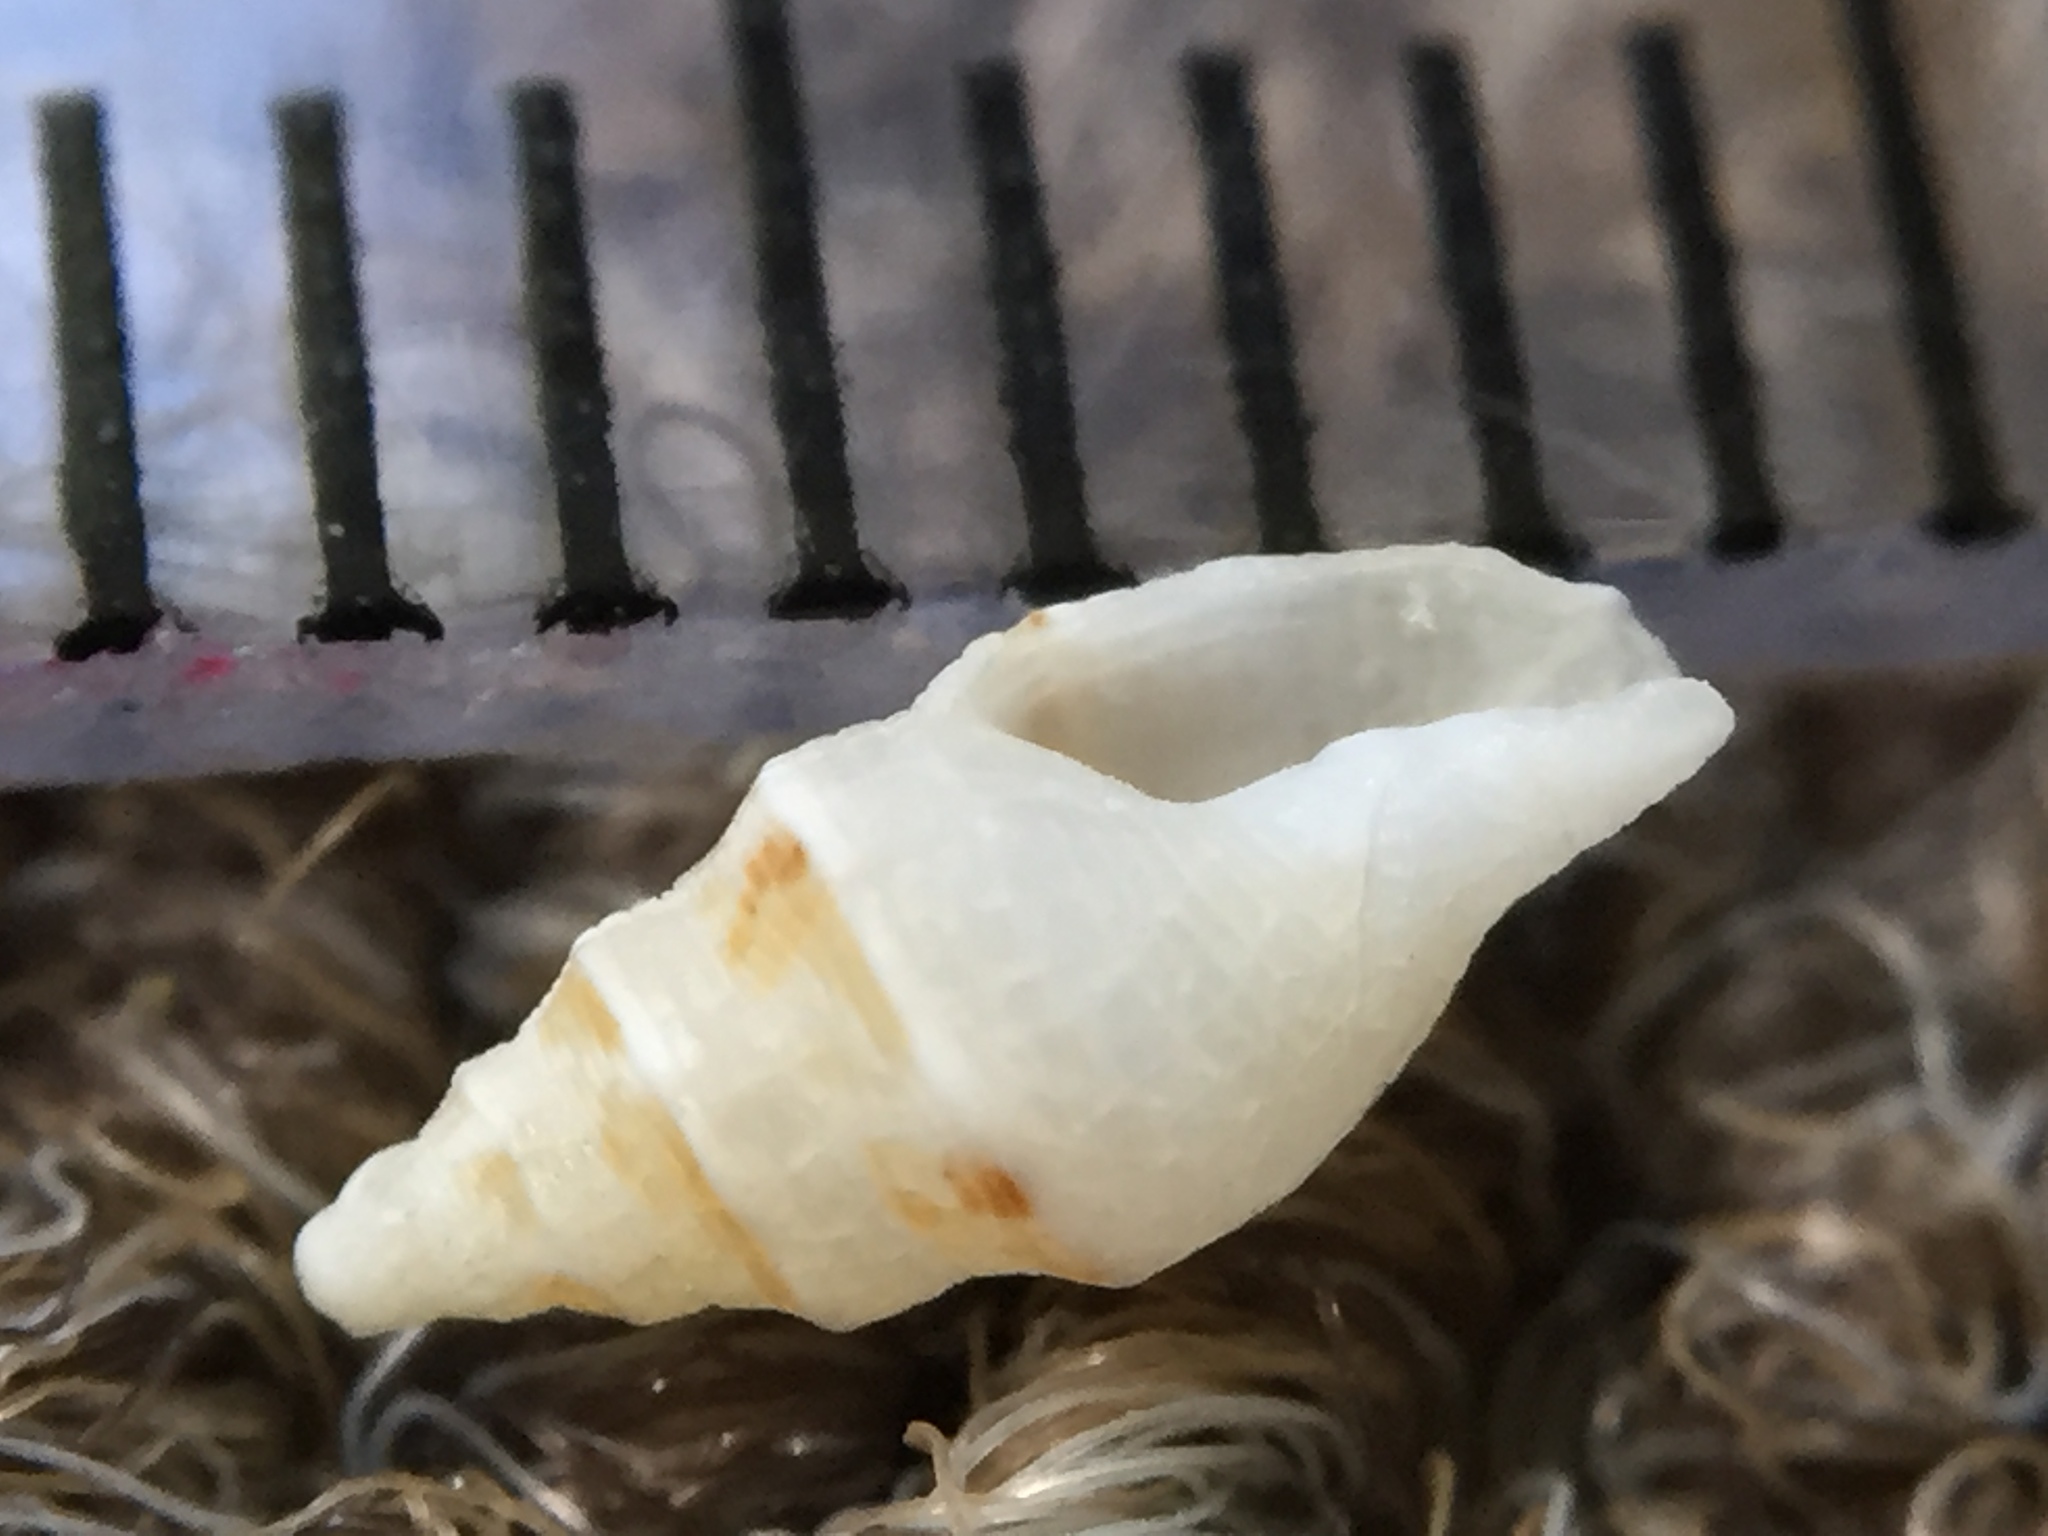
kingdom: Animalia
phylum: Mollusca
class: Gastropoda
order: Neogastropoda
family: Columbellidae
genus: Liratilia
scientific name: Liratilia subnodosa
